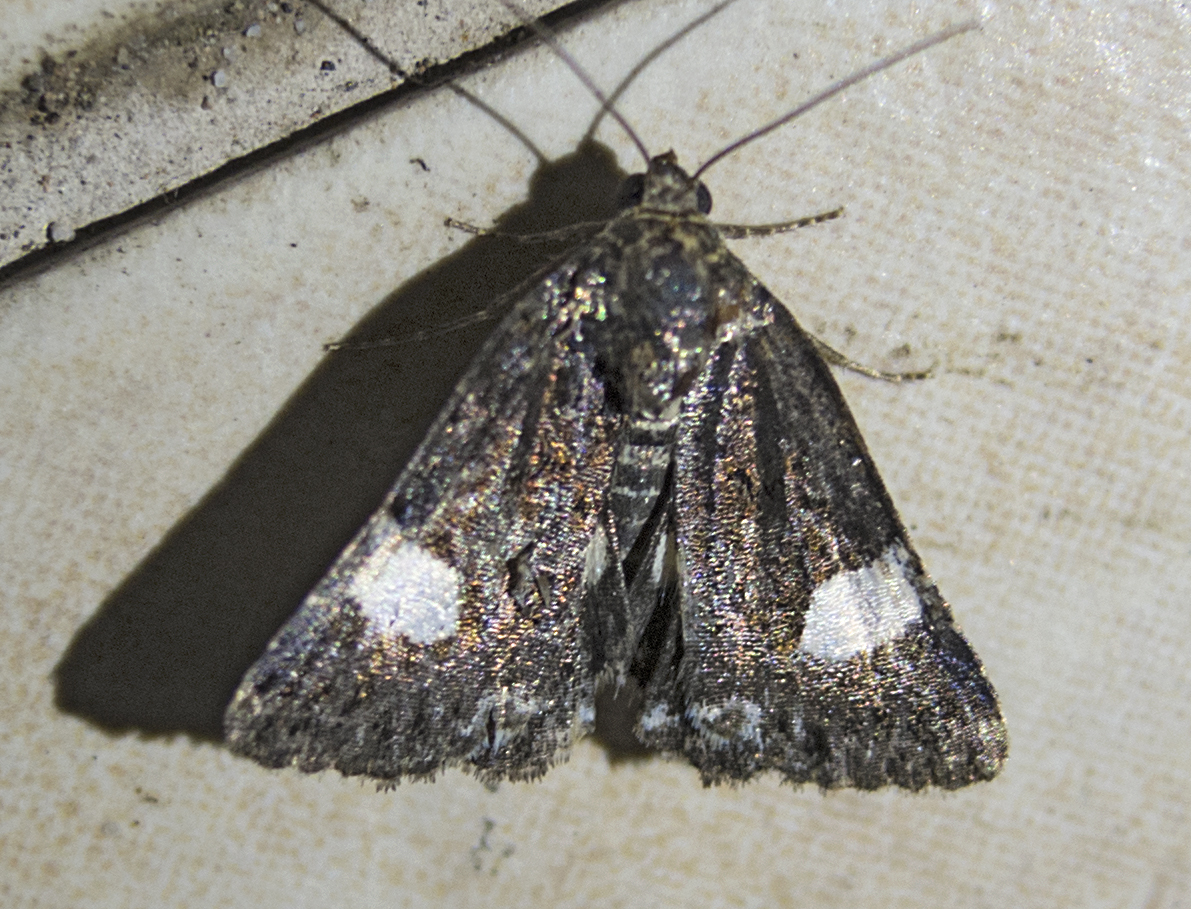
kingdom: Animalia
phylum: Arthropoda
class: Insecta
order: Lepidoptera
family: Erebidae
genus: Tyta
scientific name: Tyta luctuosa
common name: Four-spotted
